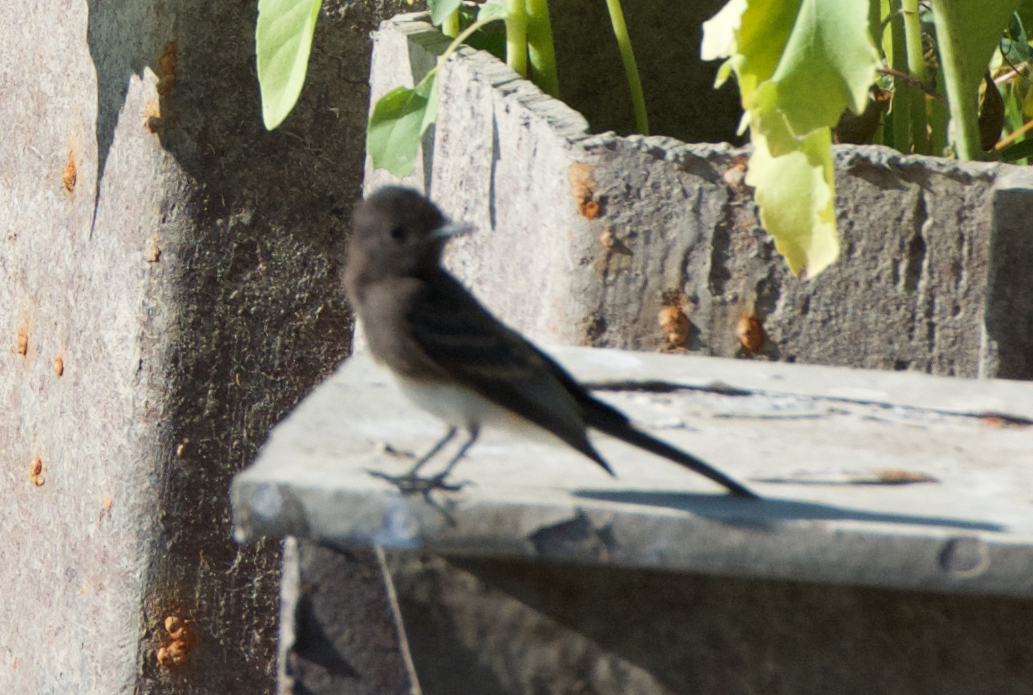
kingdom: Animalia
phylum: Chordata
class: Aves
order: Passeriformes
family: Tyrannidae
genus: Sayornis
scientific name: Sayornis nigricans
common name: Black phoebe
